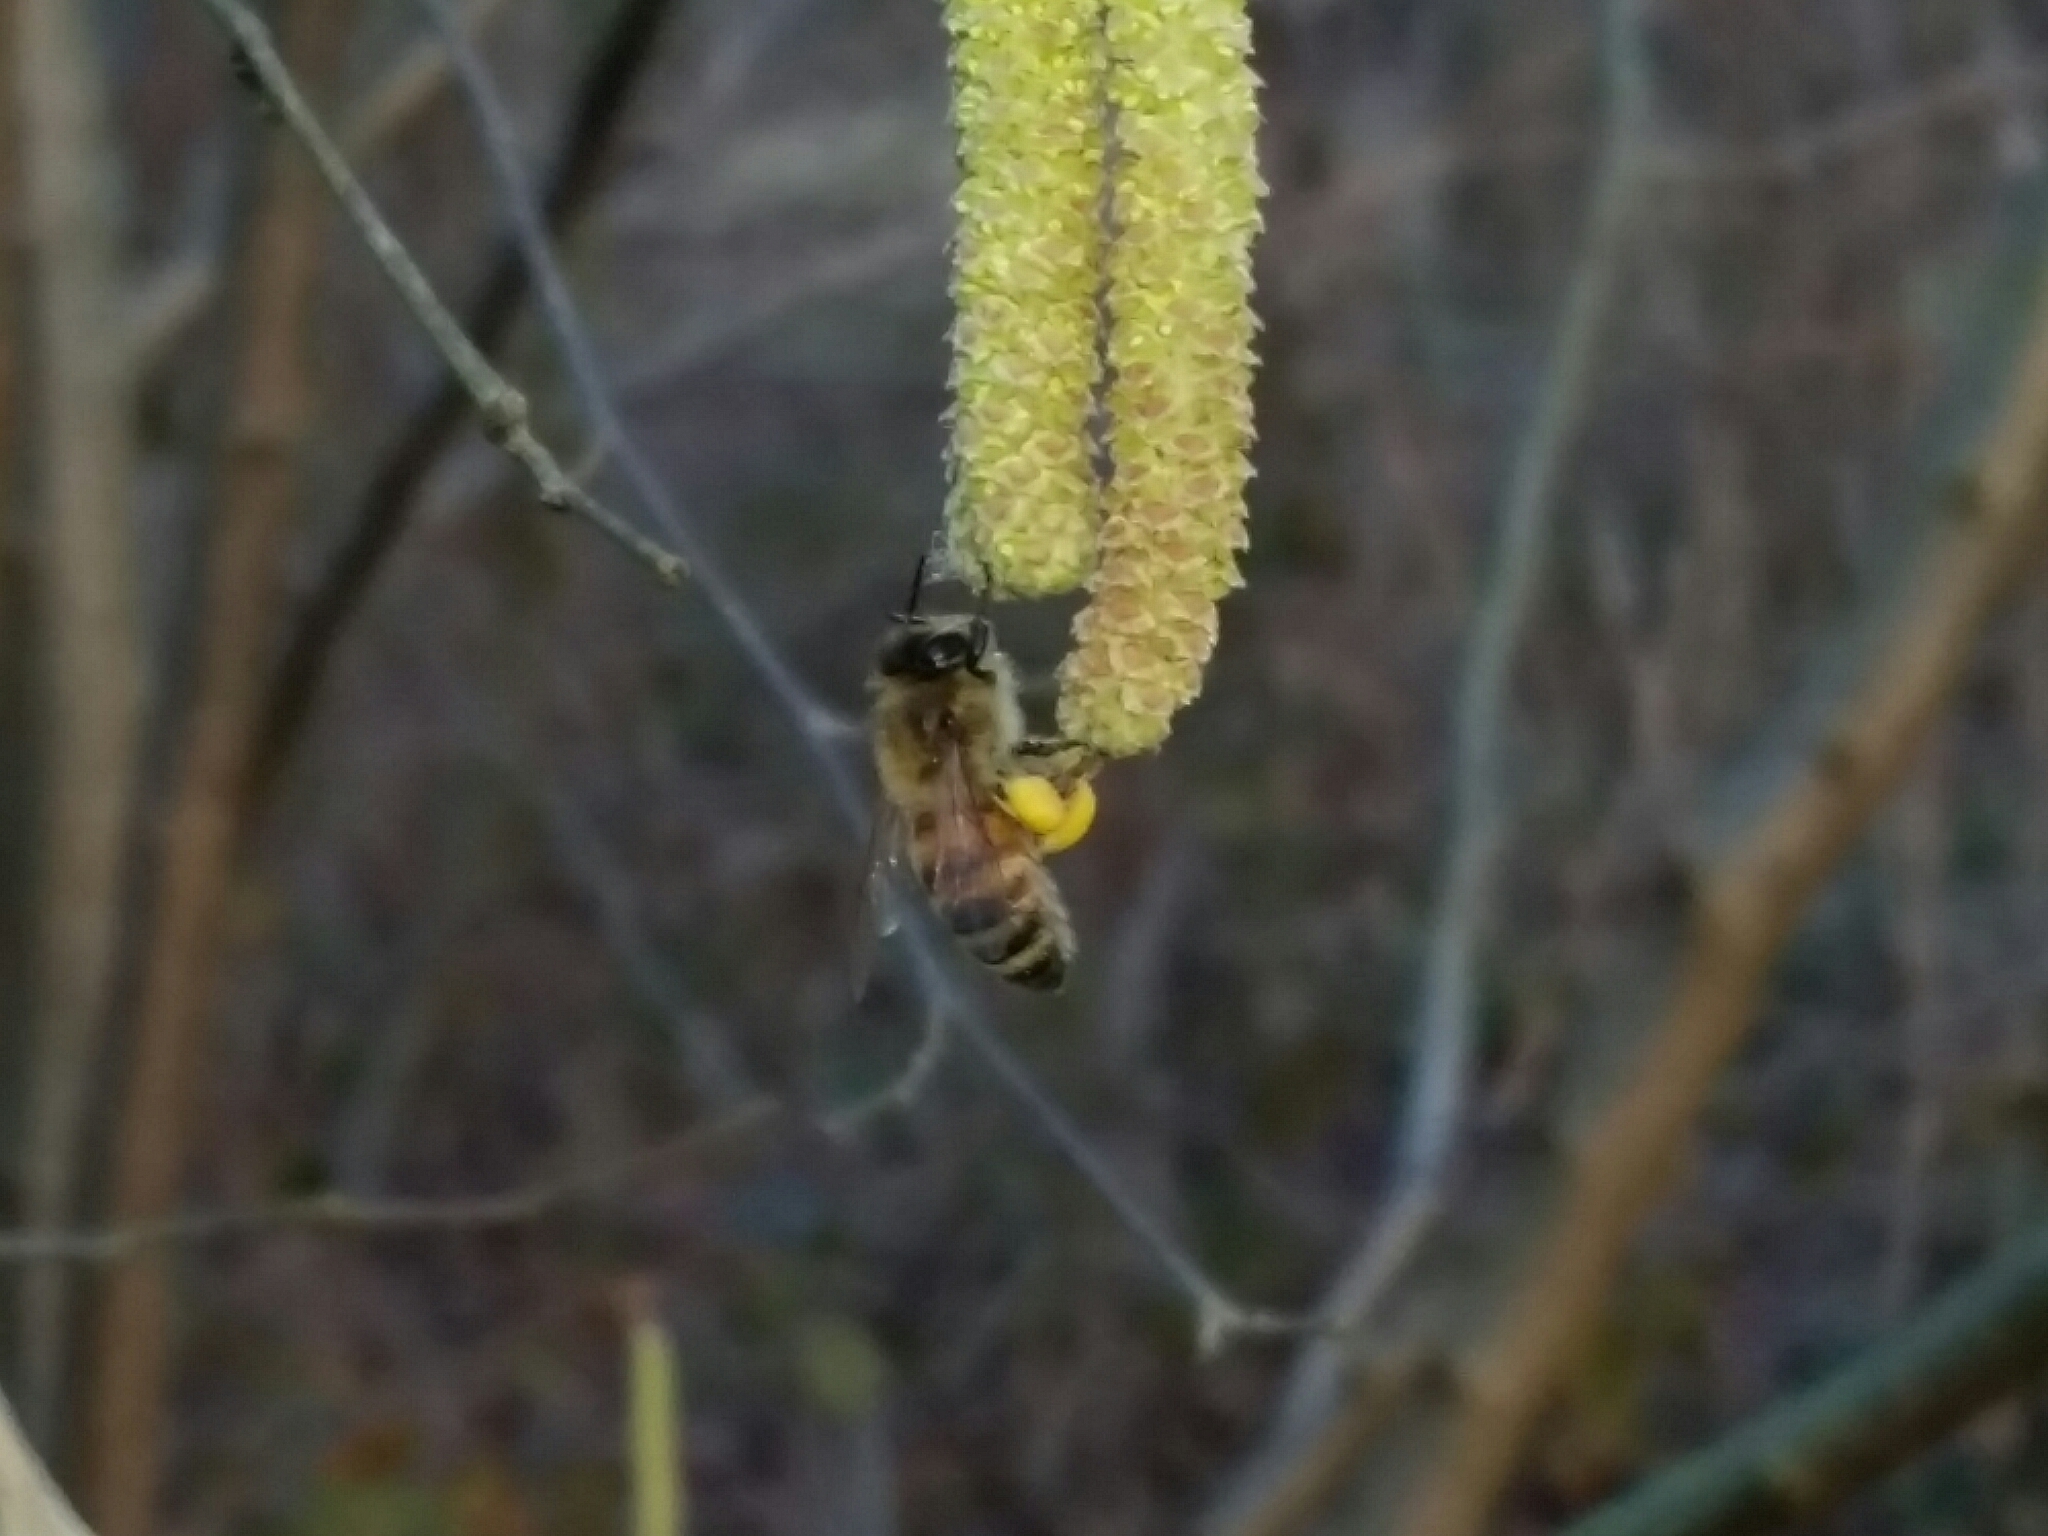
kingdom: Animalia
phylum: Arthropoda
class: Insecta
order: Hymenoptera
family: Apidae
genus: Apis
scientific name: Apis mellifera
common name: Honey bee
